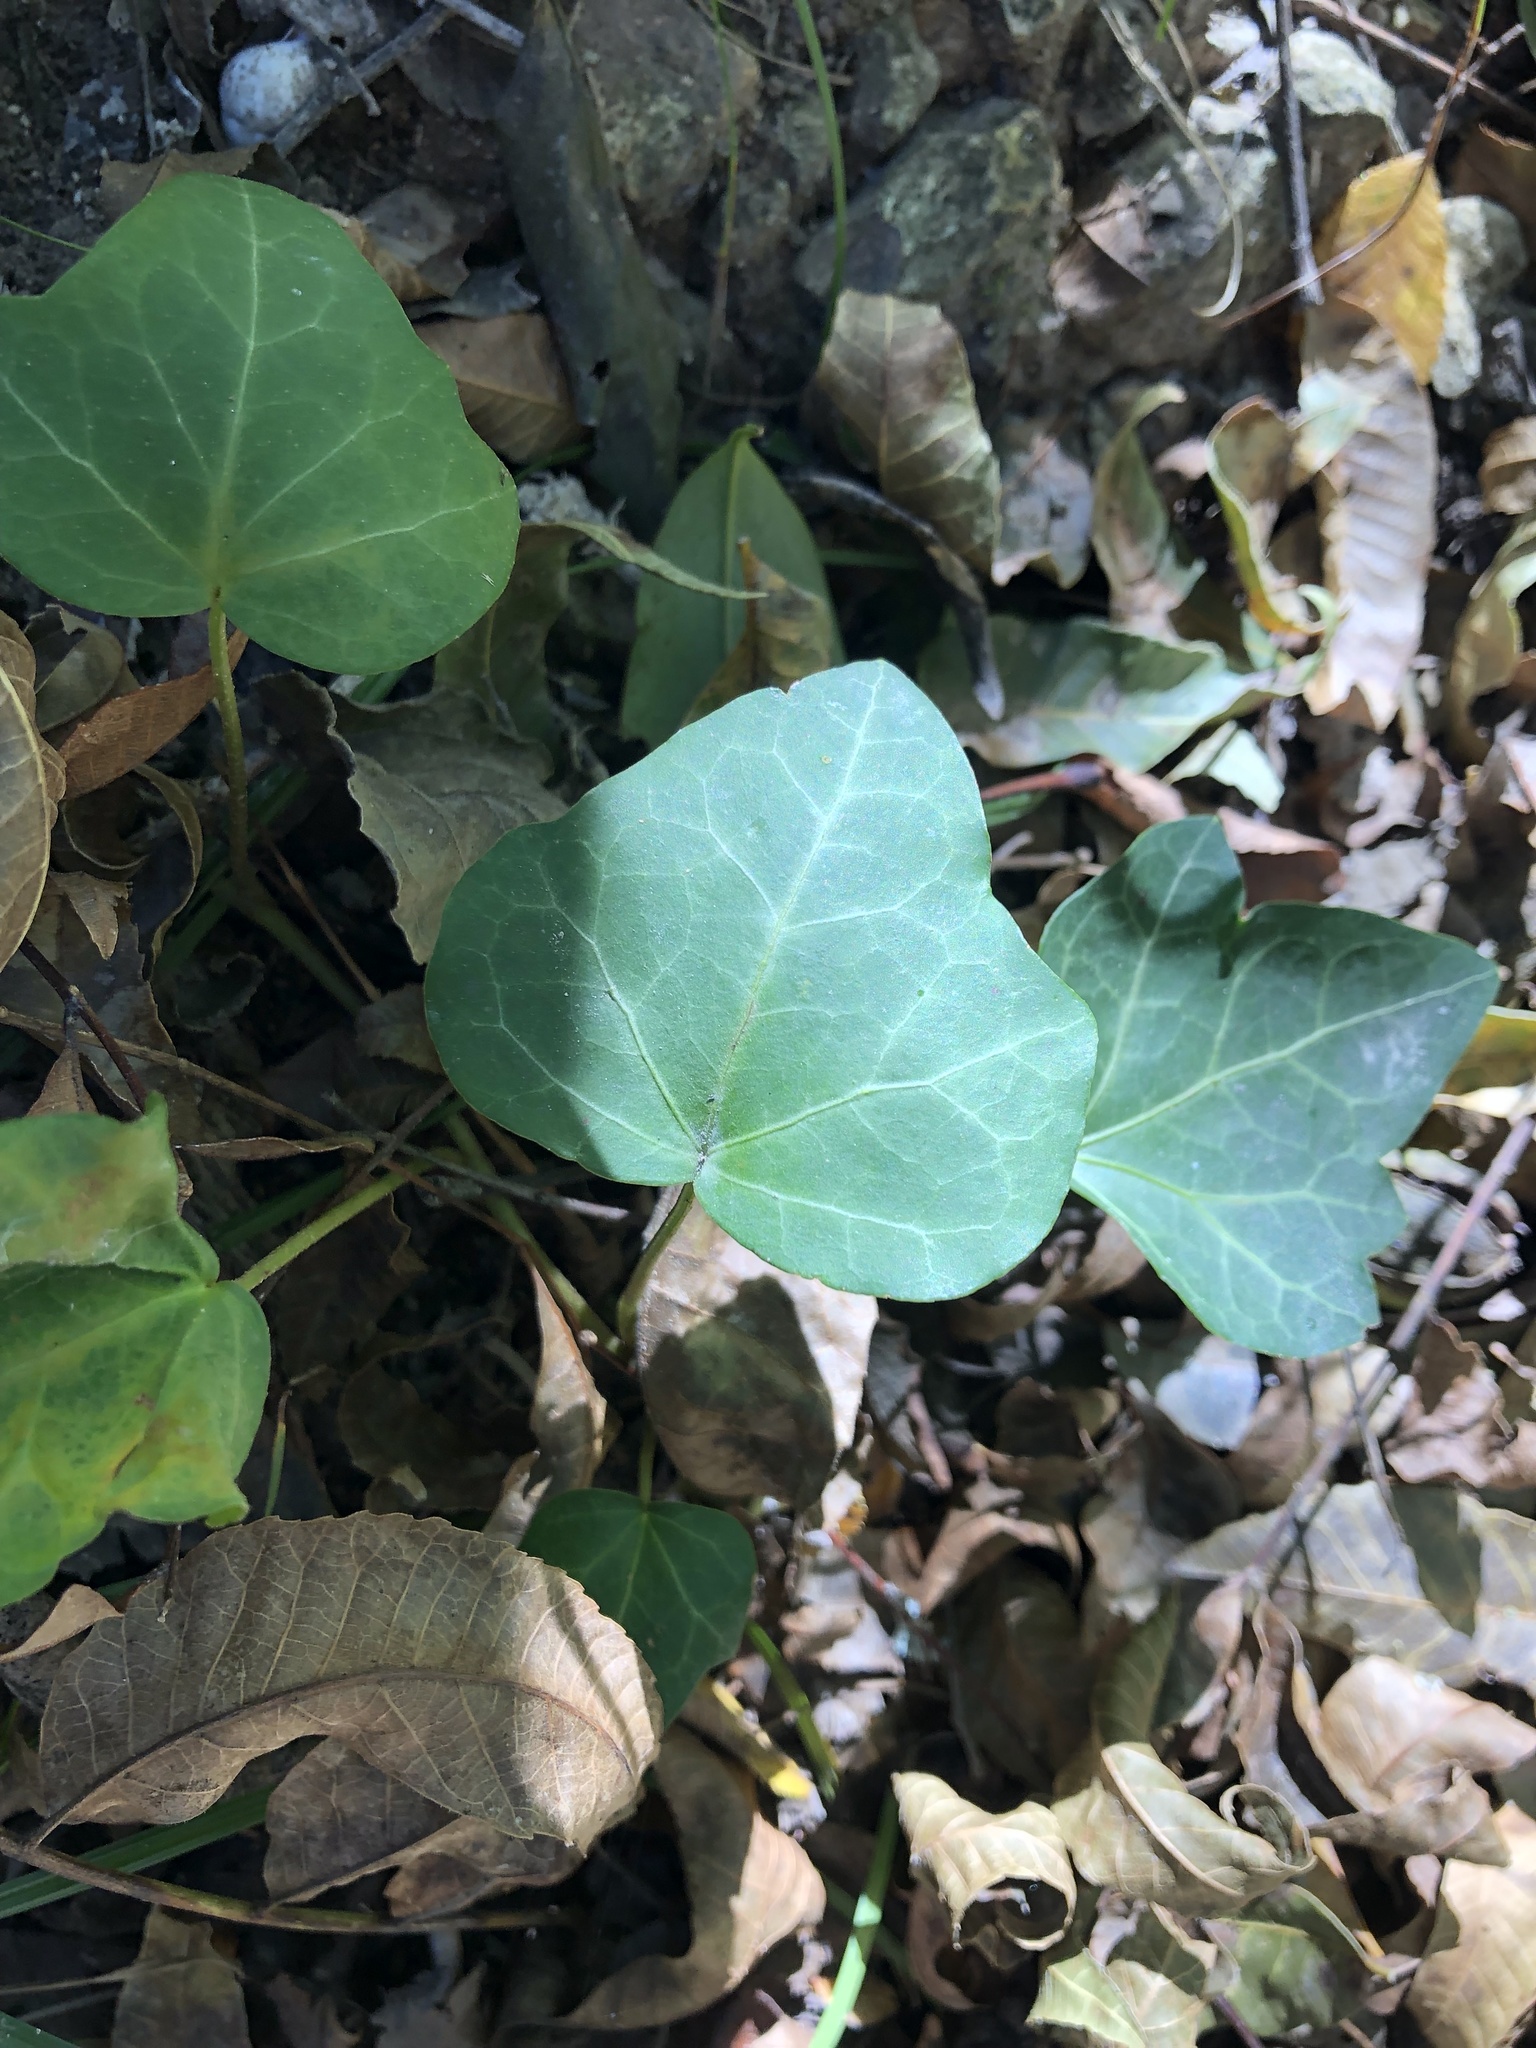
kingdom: Plantae
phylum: Tracheophyta
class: Magnoliopsida
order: Apiales
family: Araliaceae
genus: Hedera
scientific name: Hedera helix
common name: Ivy
